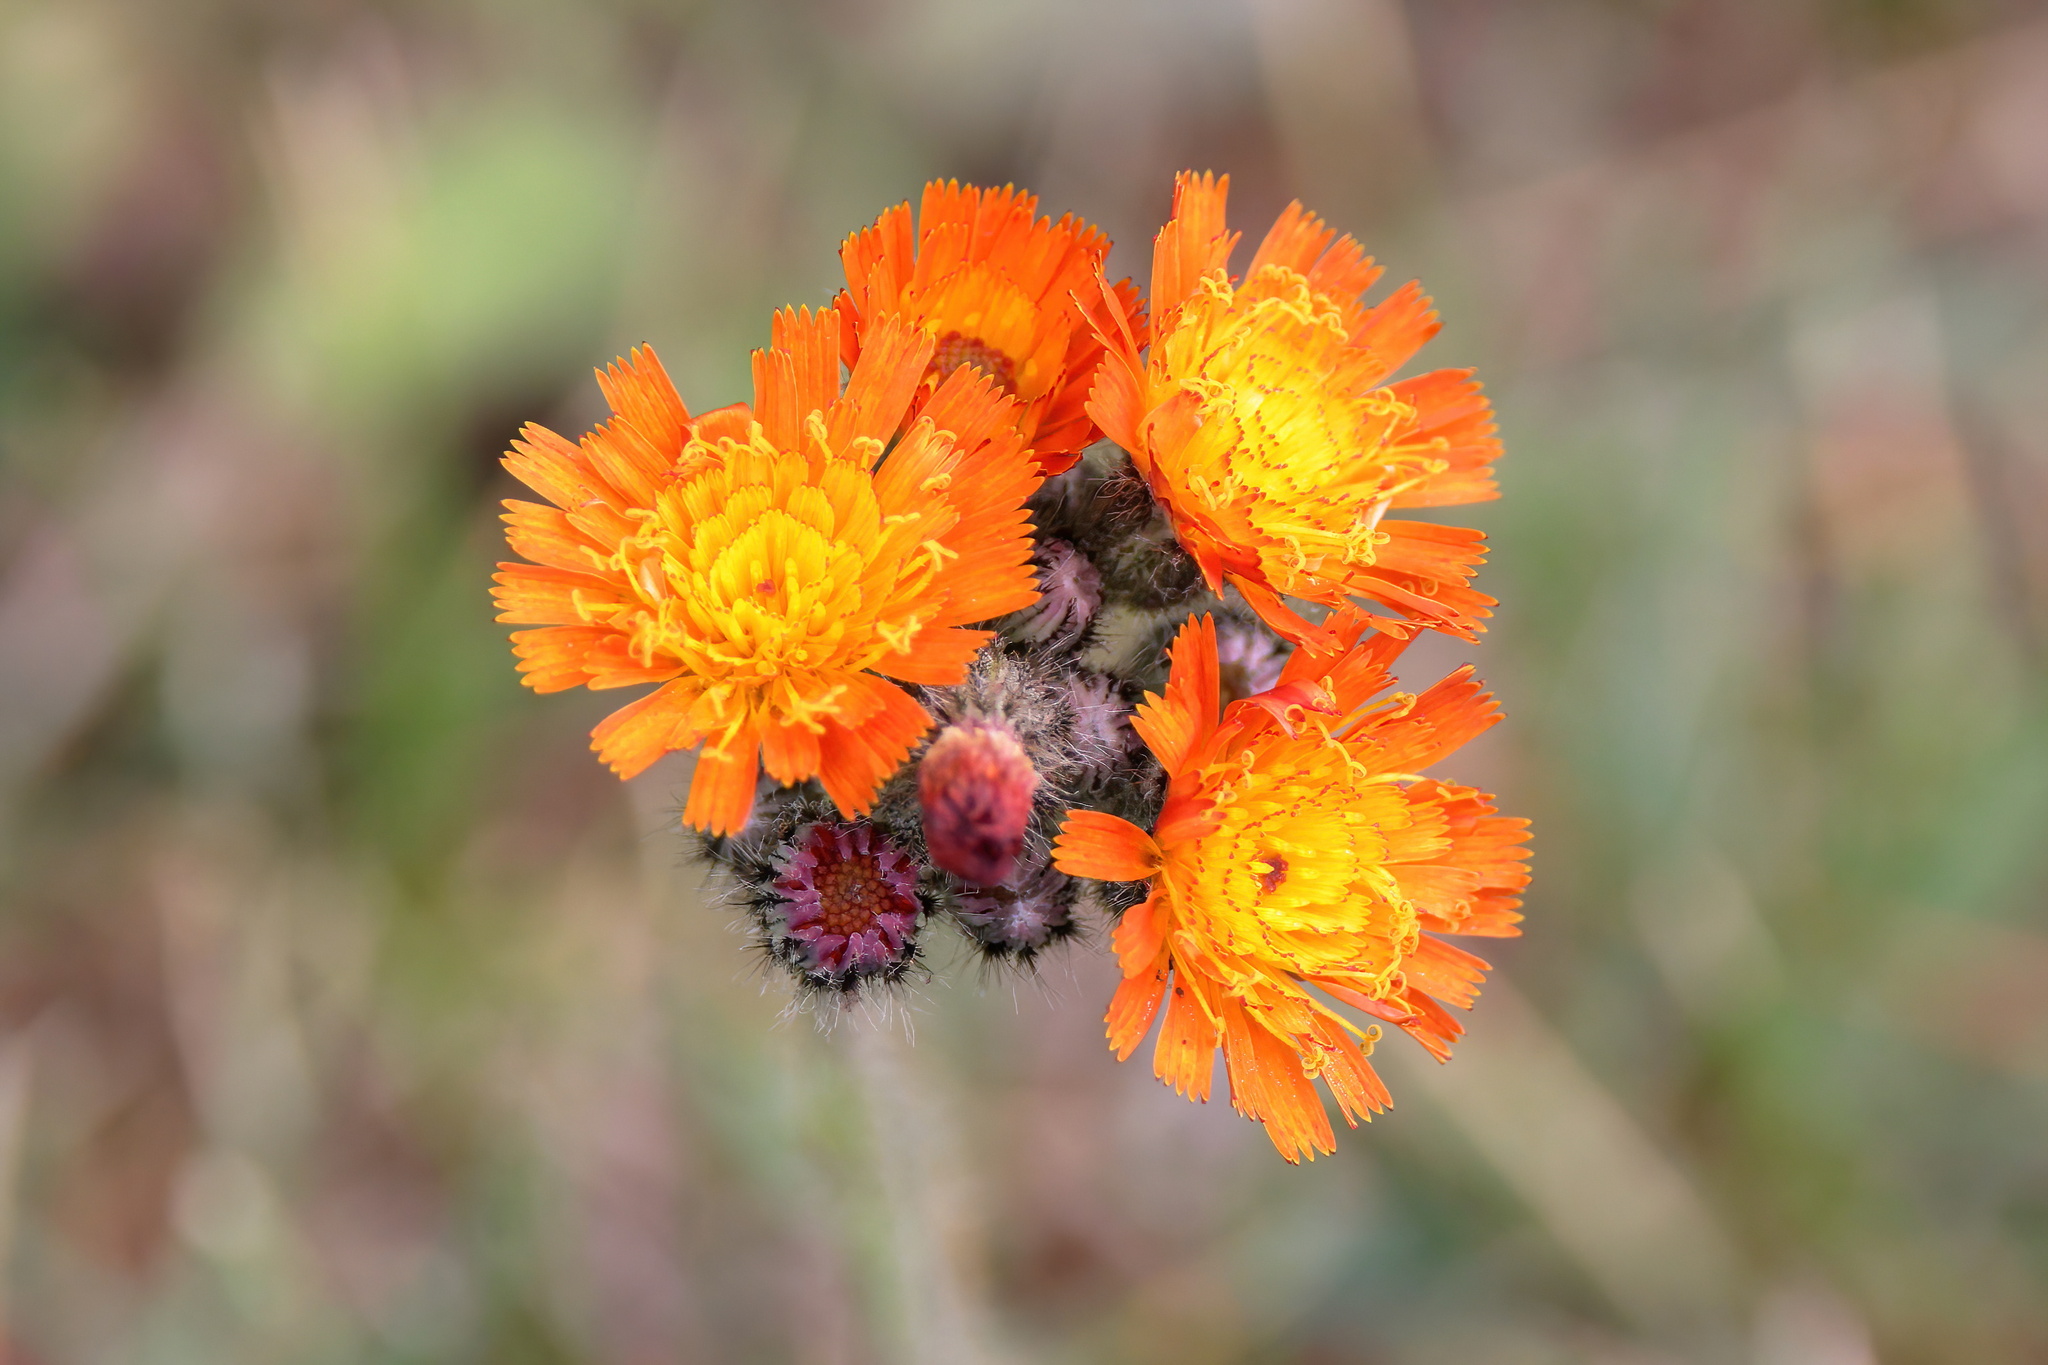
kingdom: Plantae
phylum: Tracheophyta
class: Magnoliopsida
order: Asterales
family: Asteraceae
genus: Pilosella
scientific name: Pilosella aurantiaca
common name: Fox-and-cubs
